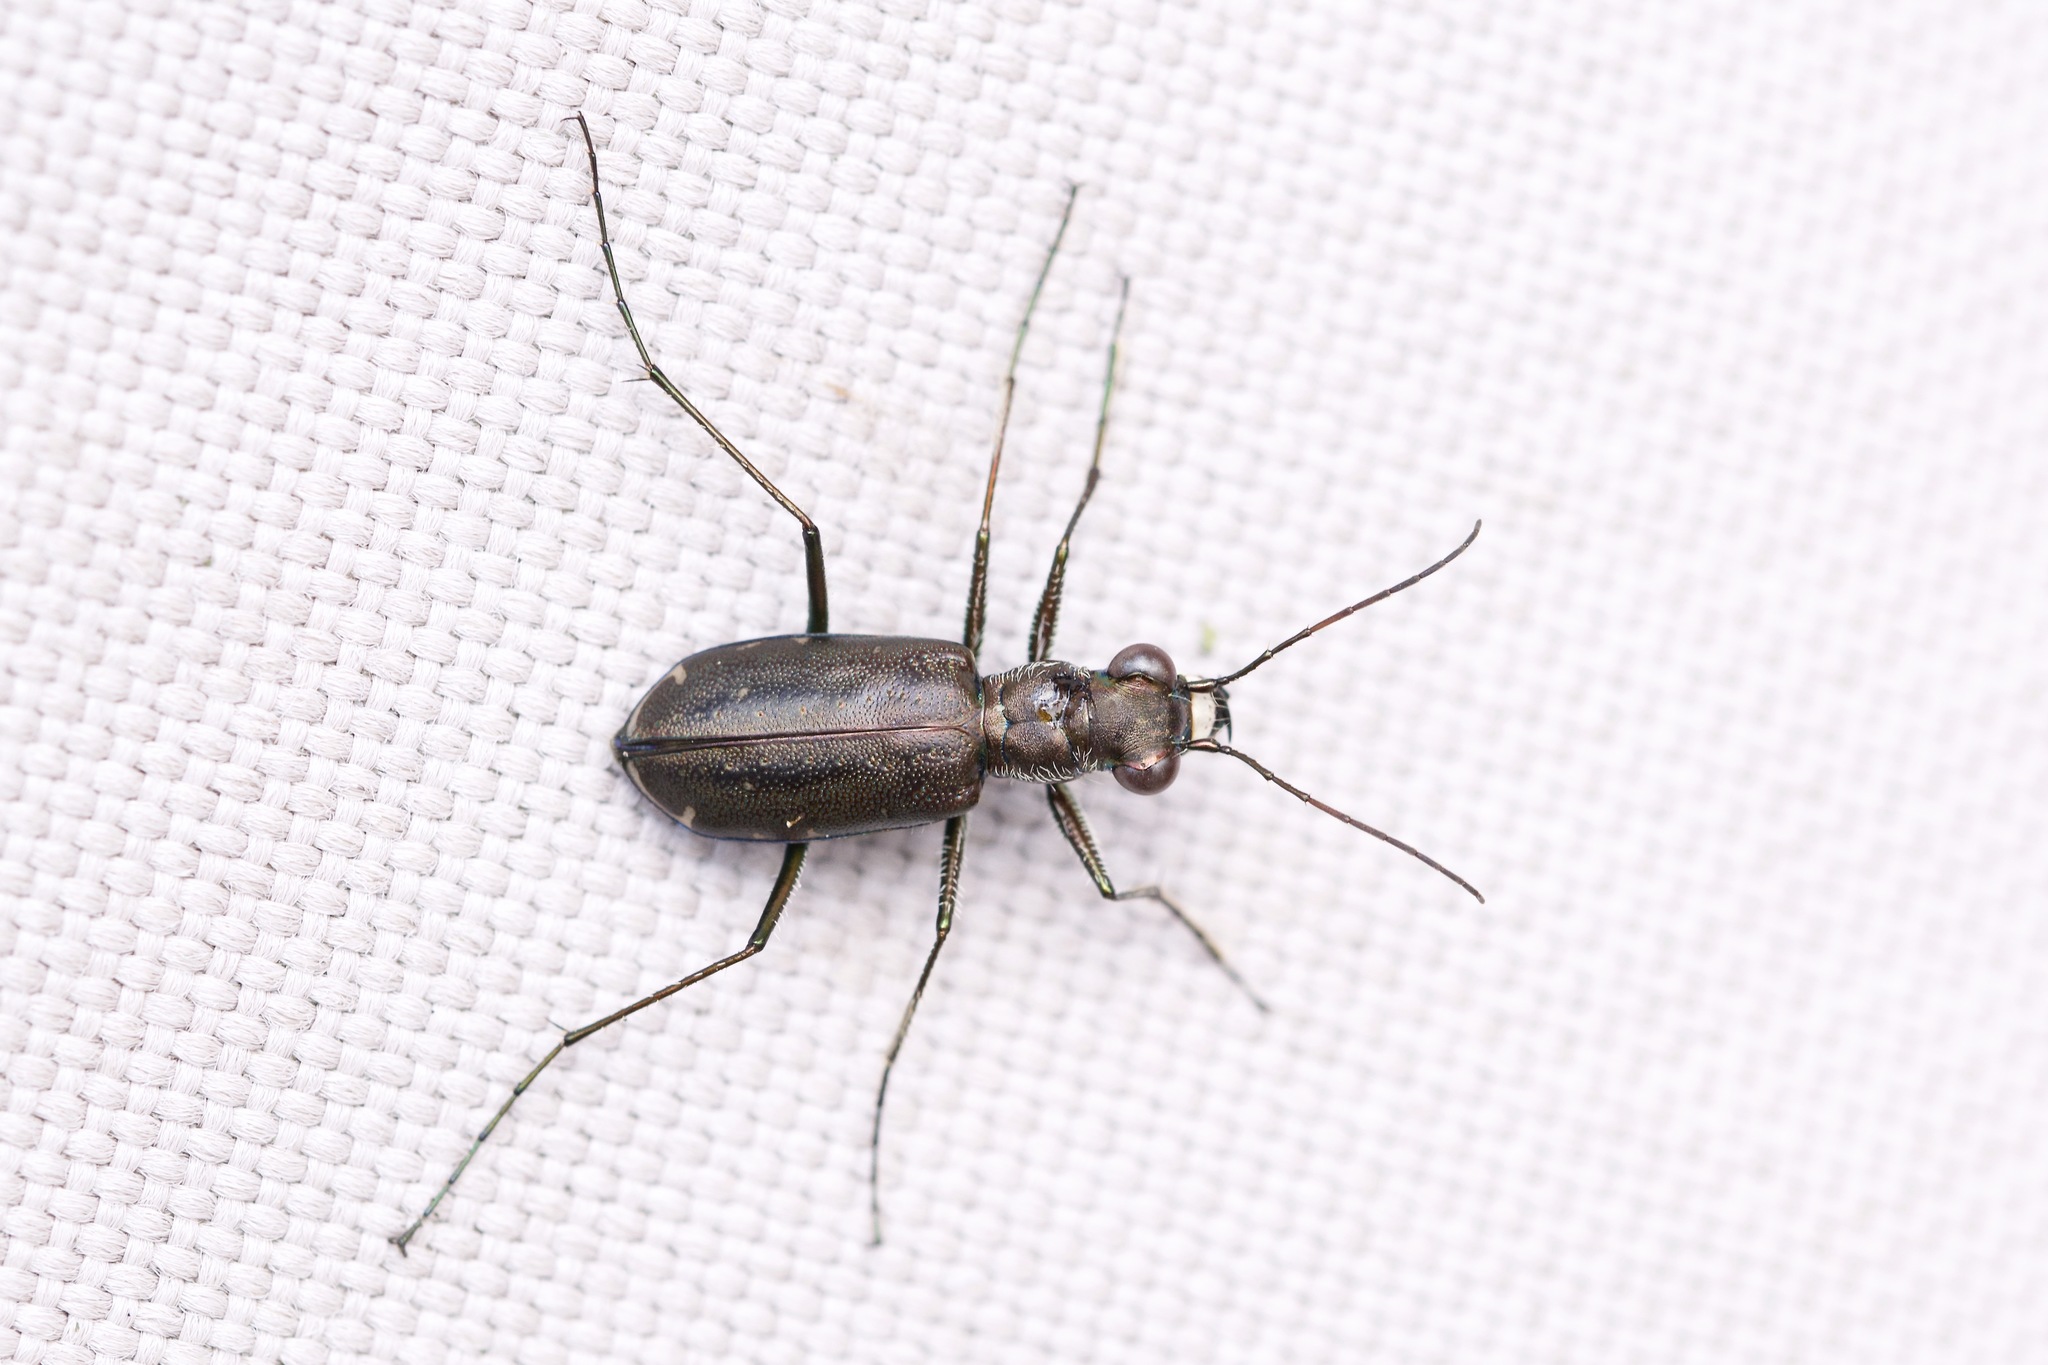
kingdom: Animalia
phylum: Arthropoda
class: Insecta
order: Coleoptera
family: Carabidae
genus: Cicindela
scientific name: Cicindela punctulata
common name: Punctured tiger beetle
